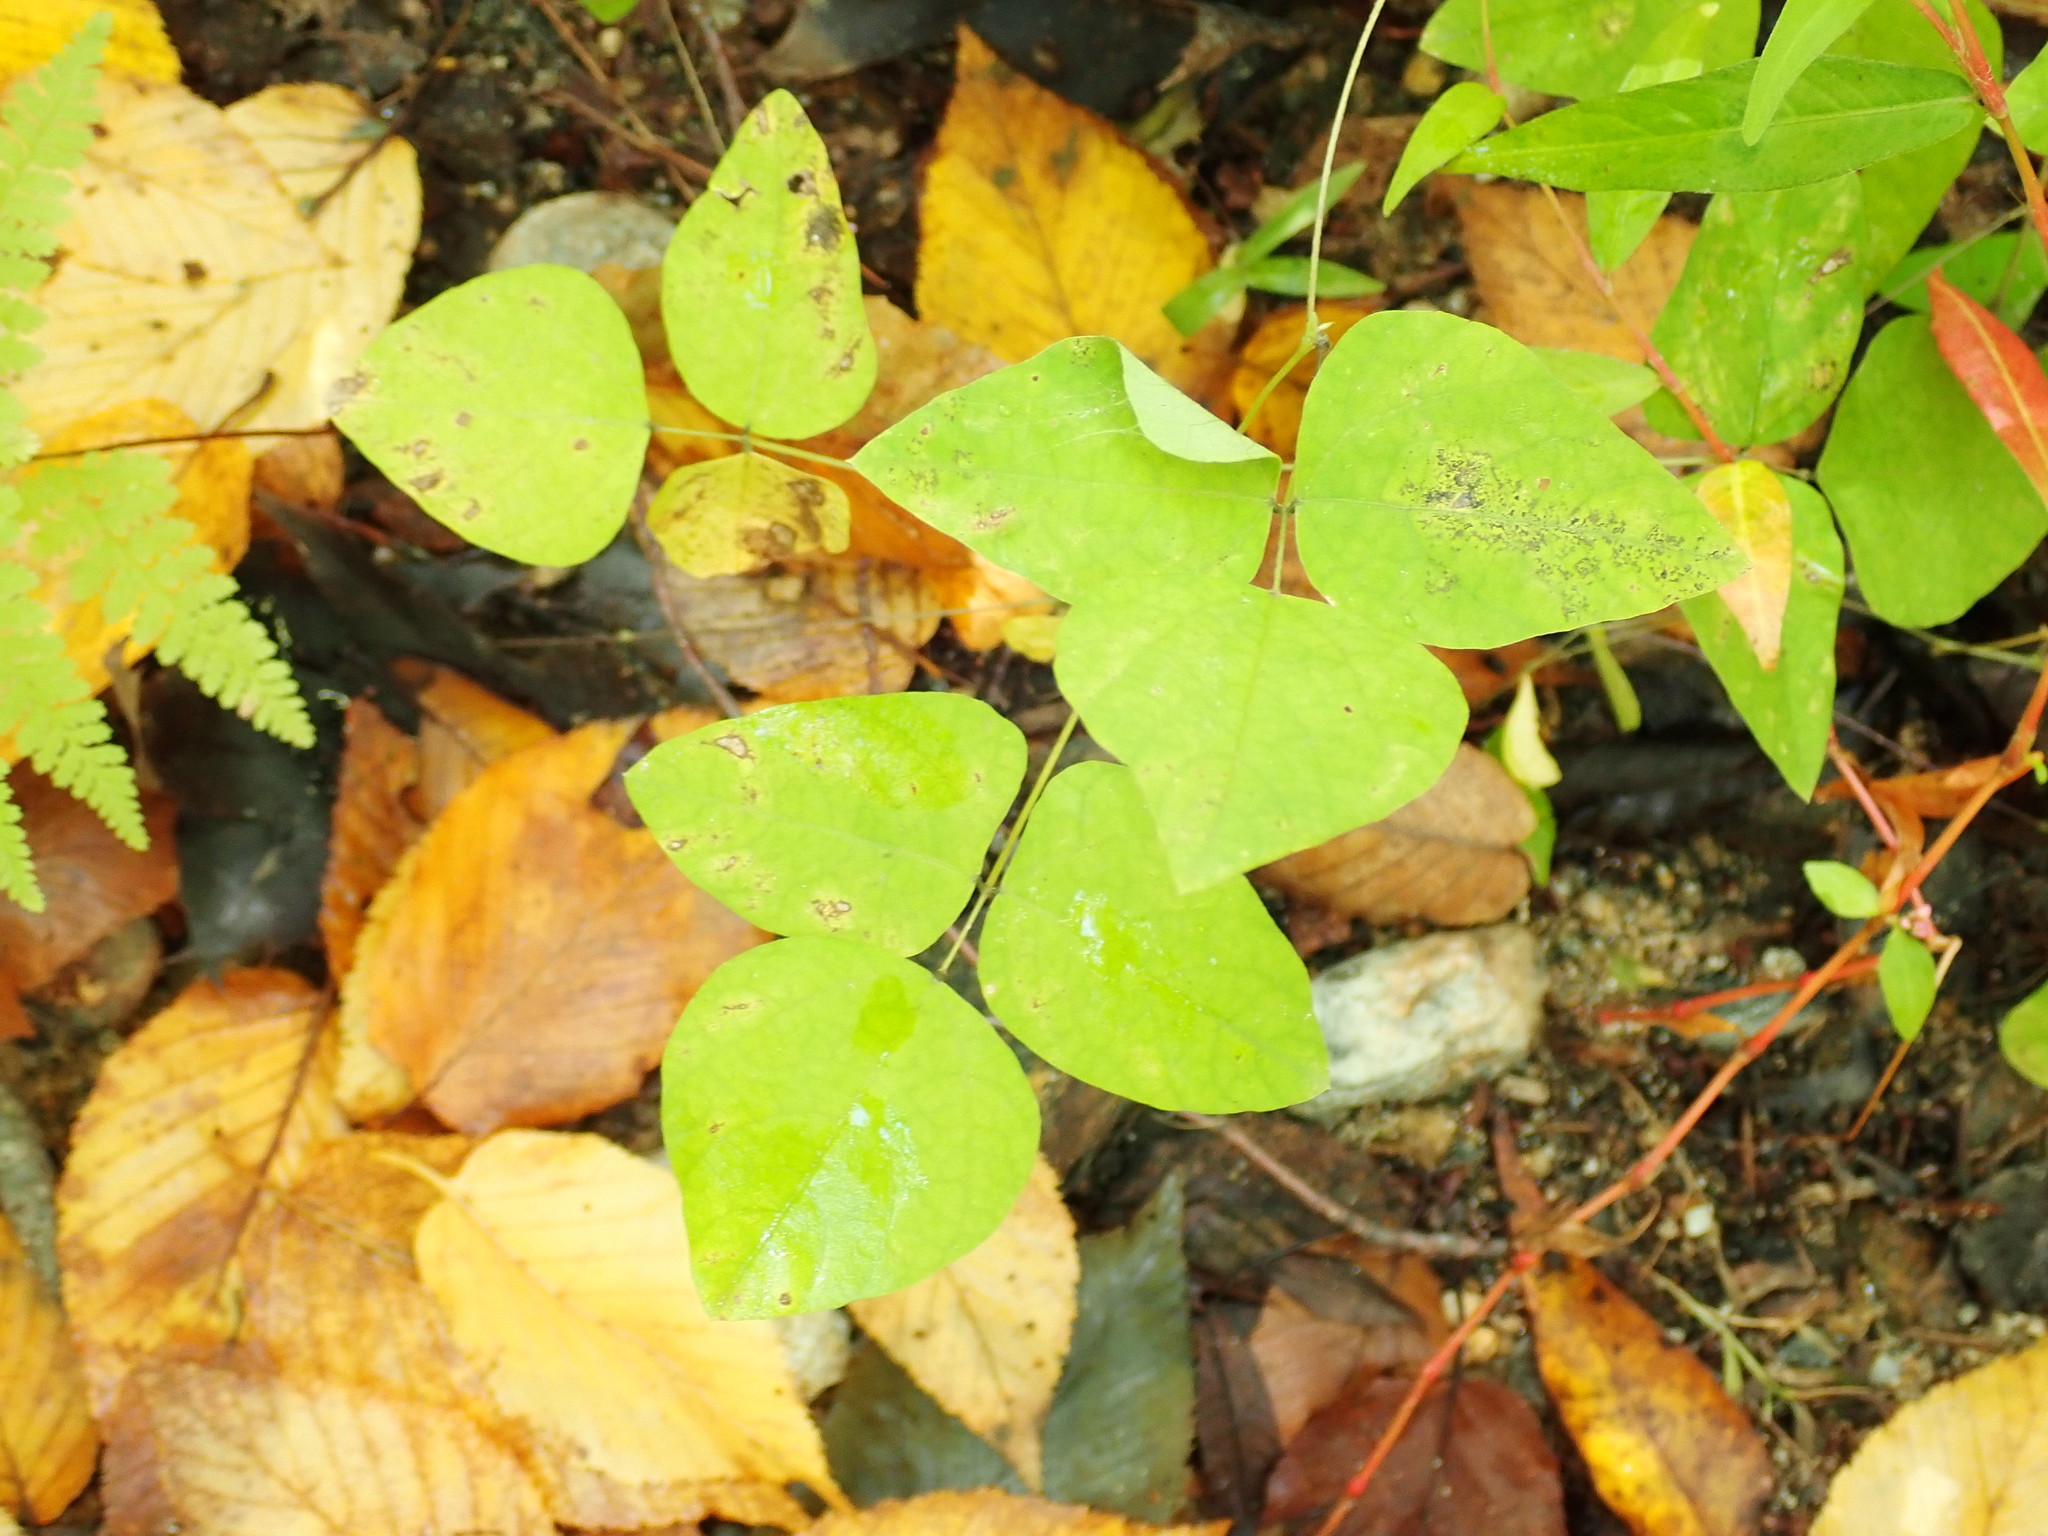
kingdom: Plantae
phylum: Tracheophyta
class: Magnoliopsida
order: Fabales
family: Fabaceae
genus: Amphicarpaea
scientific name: Amphicarpaea bracteata
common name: American hog peanut
